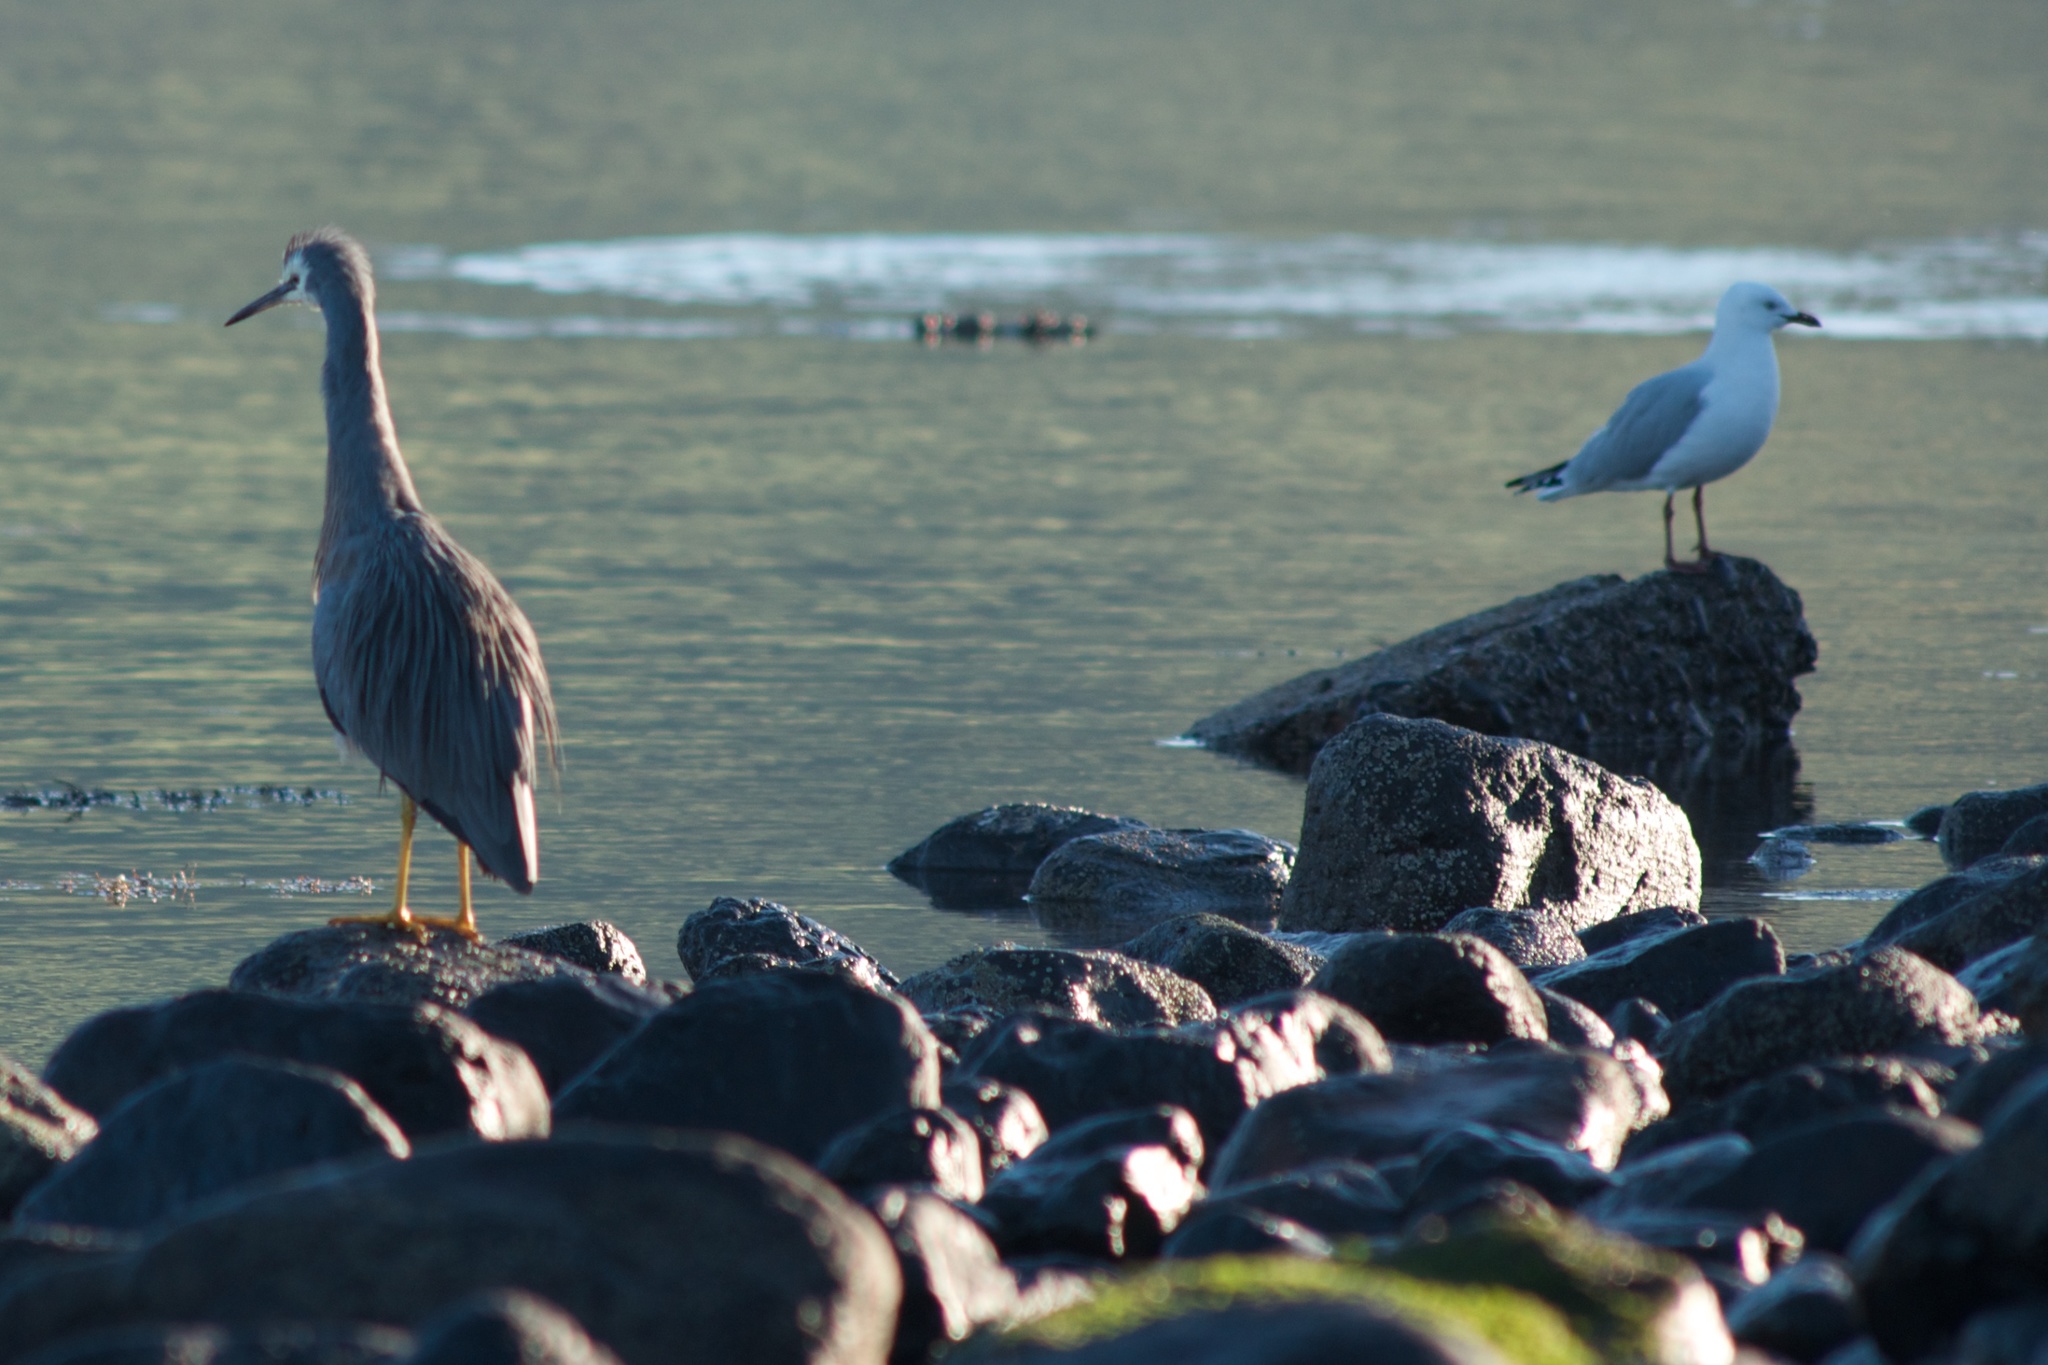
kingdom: Animalia
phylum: Chordata
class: Aves
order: Pelecaniformes
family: Ardeidae
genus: Egretta
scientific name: Egretta novaehollandiae
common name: White-faced heron
